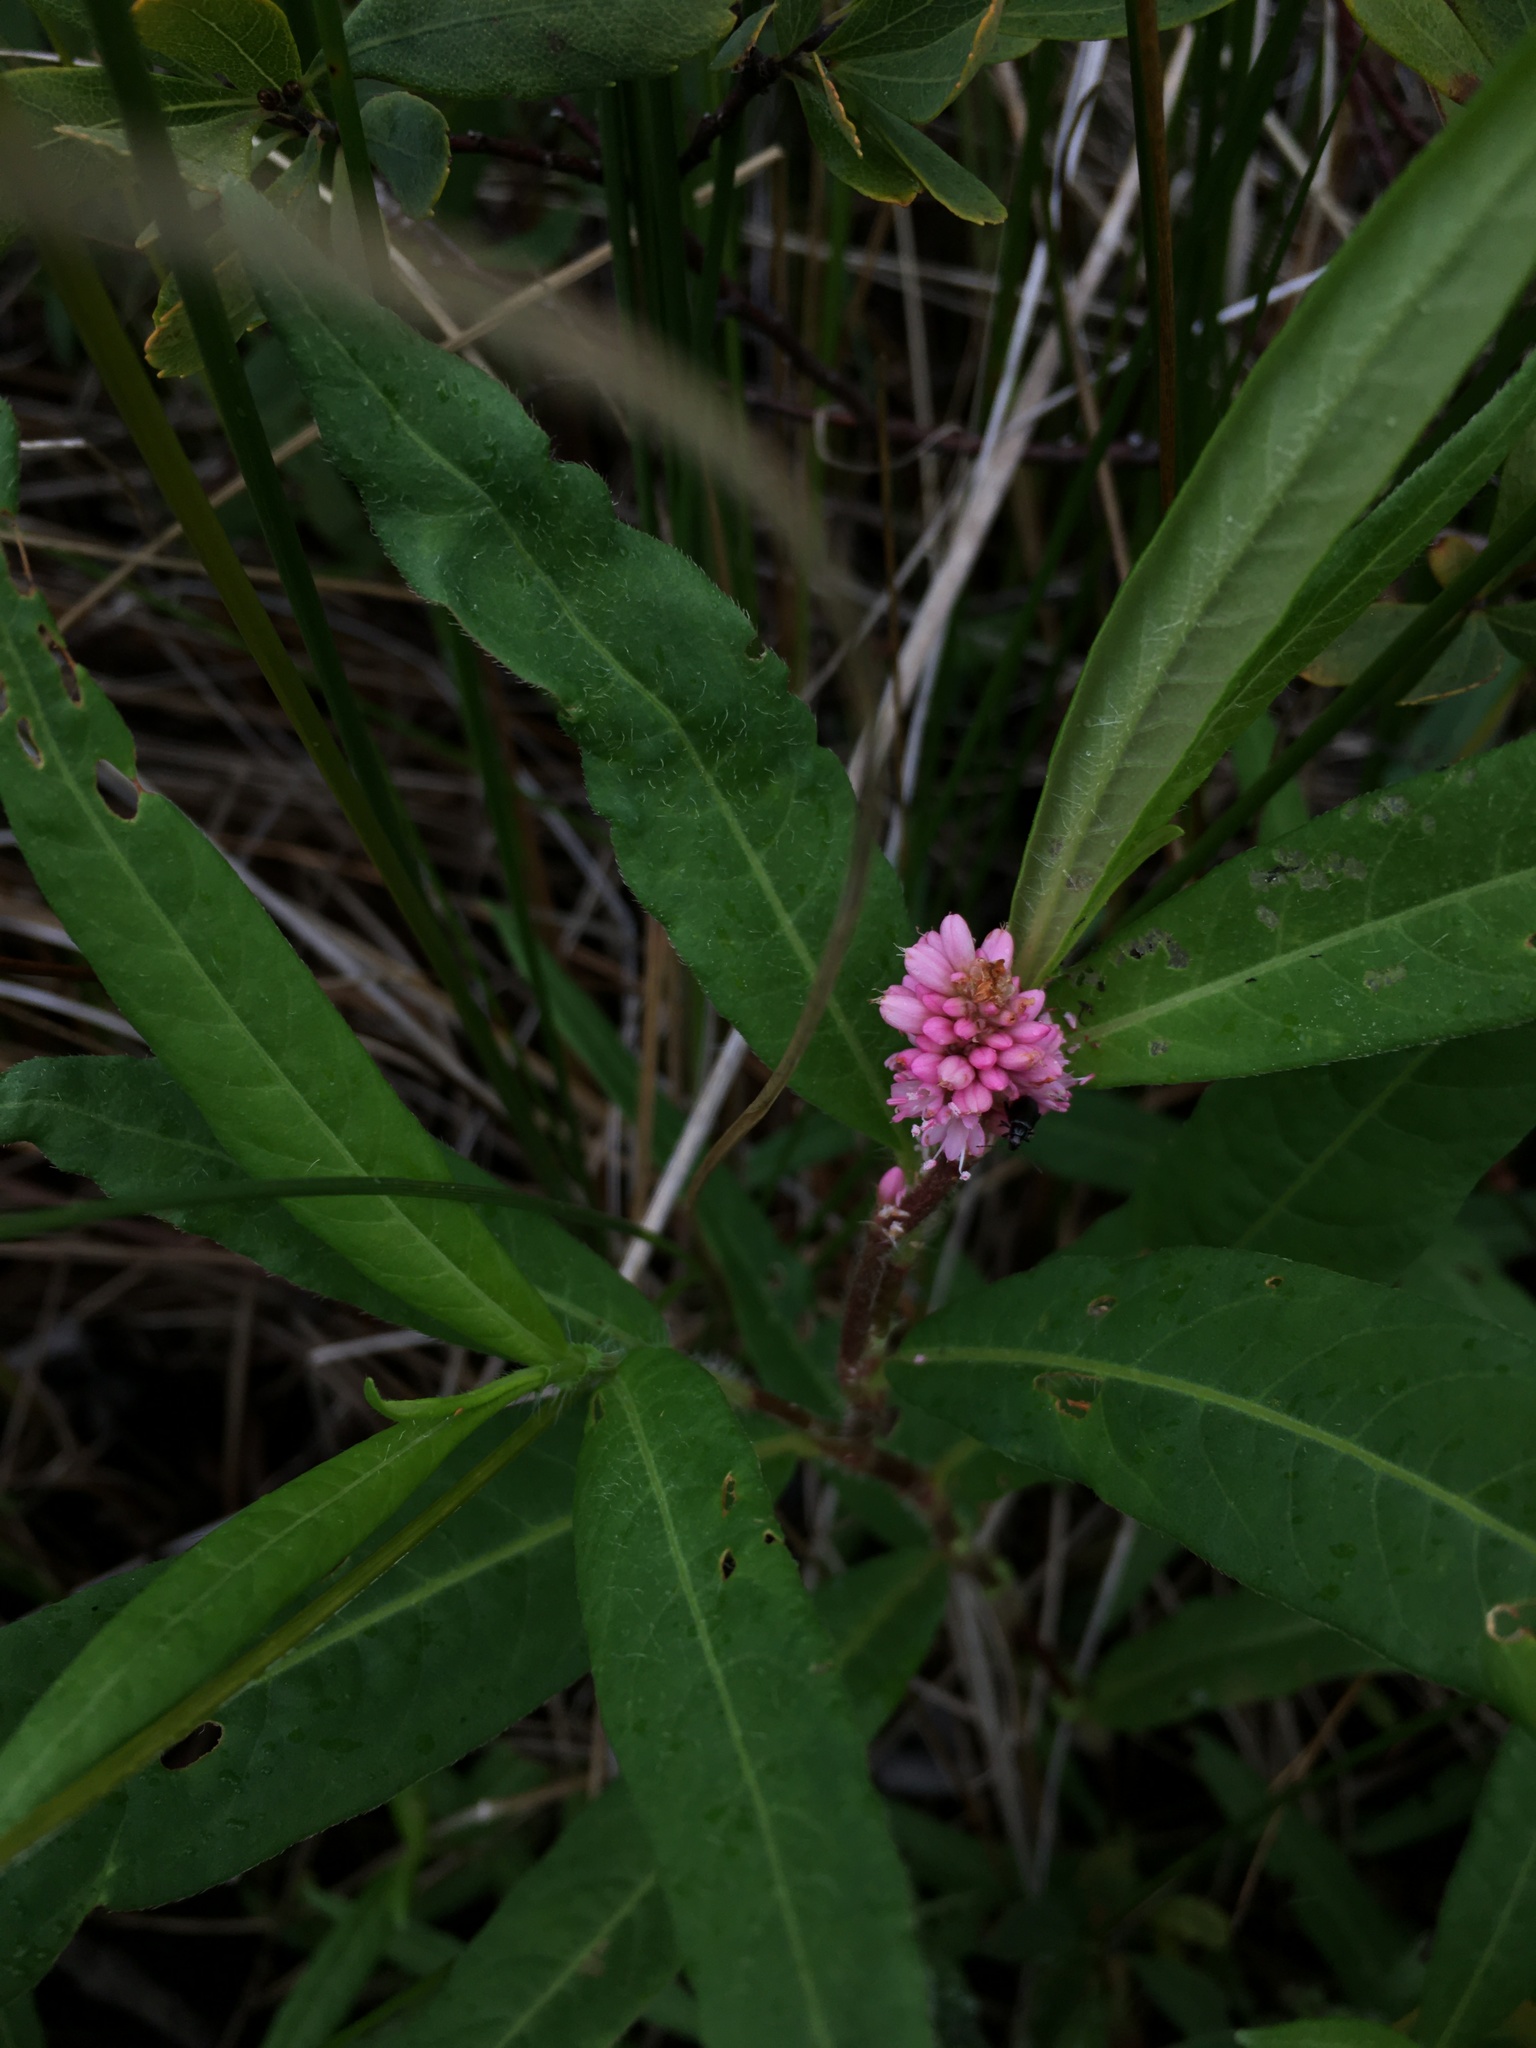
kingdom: Plantae
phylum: Tracheophyta
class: Magnoliopsida
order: Caryophyllales
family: Polygonaceae
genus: Persicaria
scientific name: Persicaria amphibia
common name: Amphibious bistort
